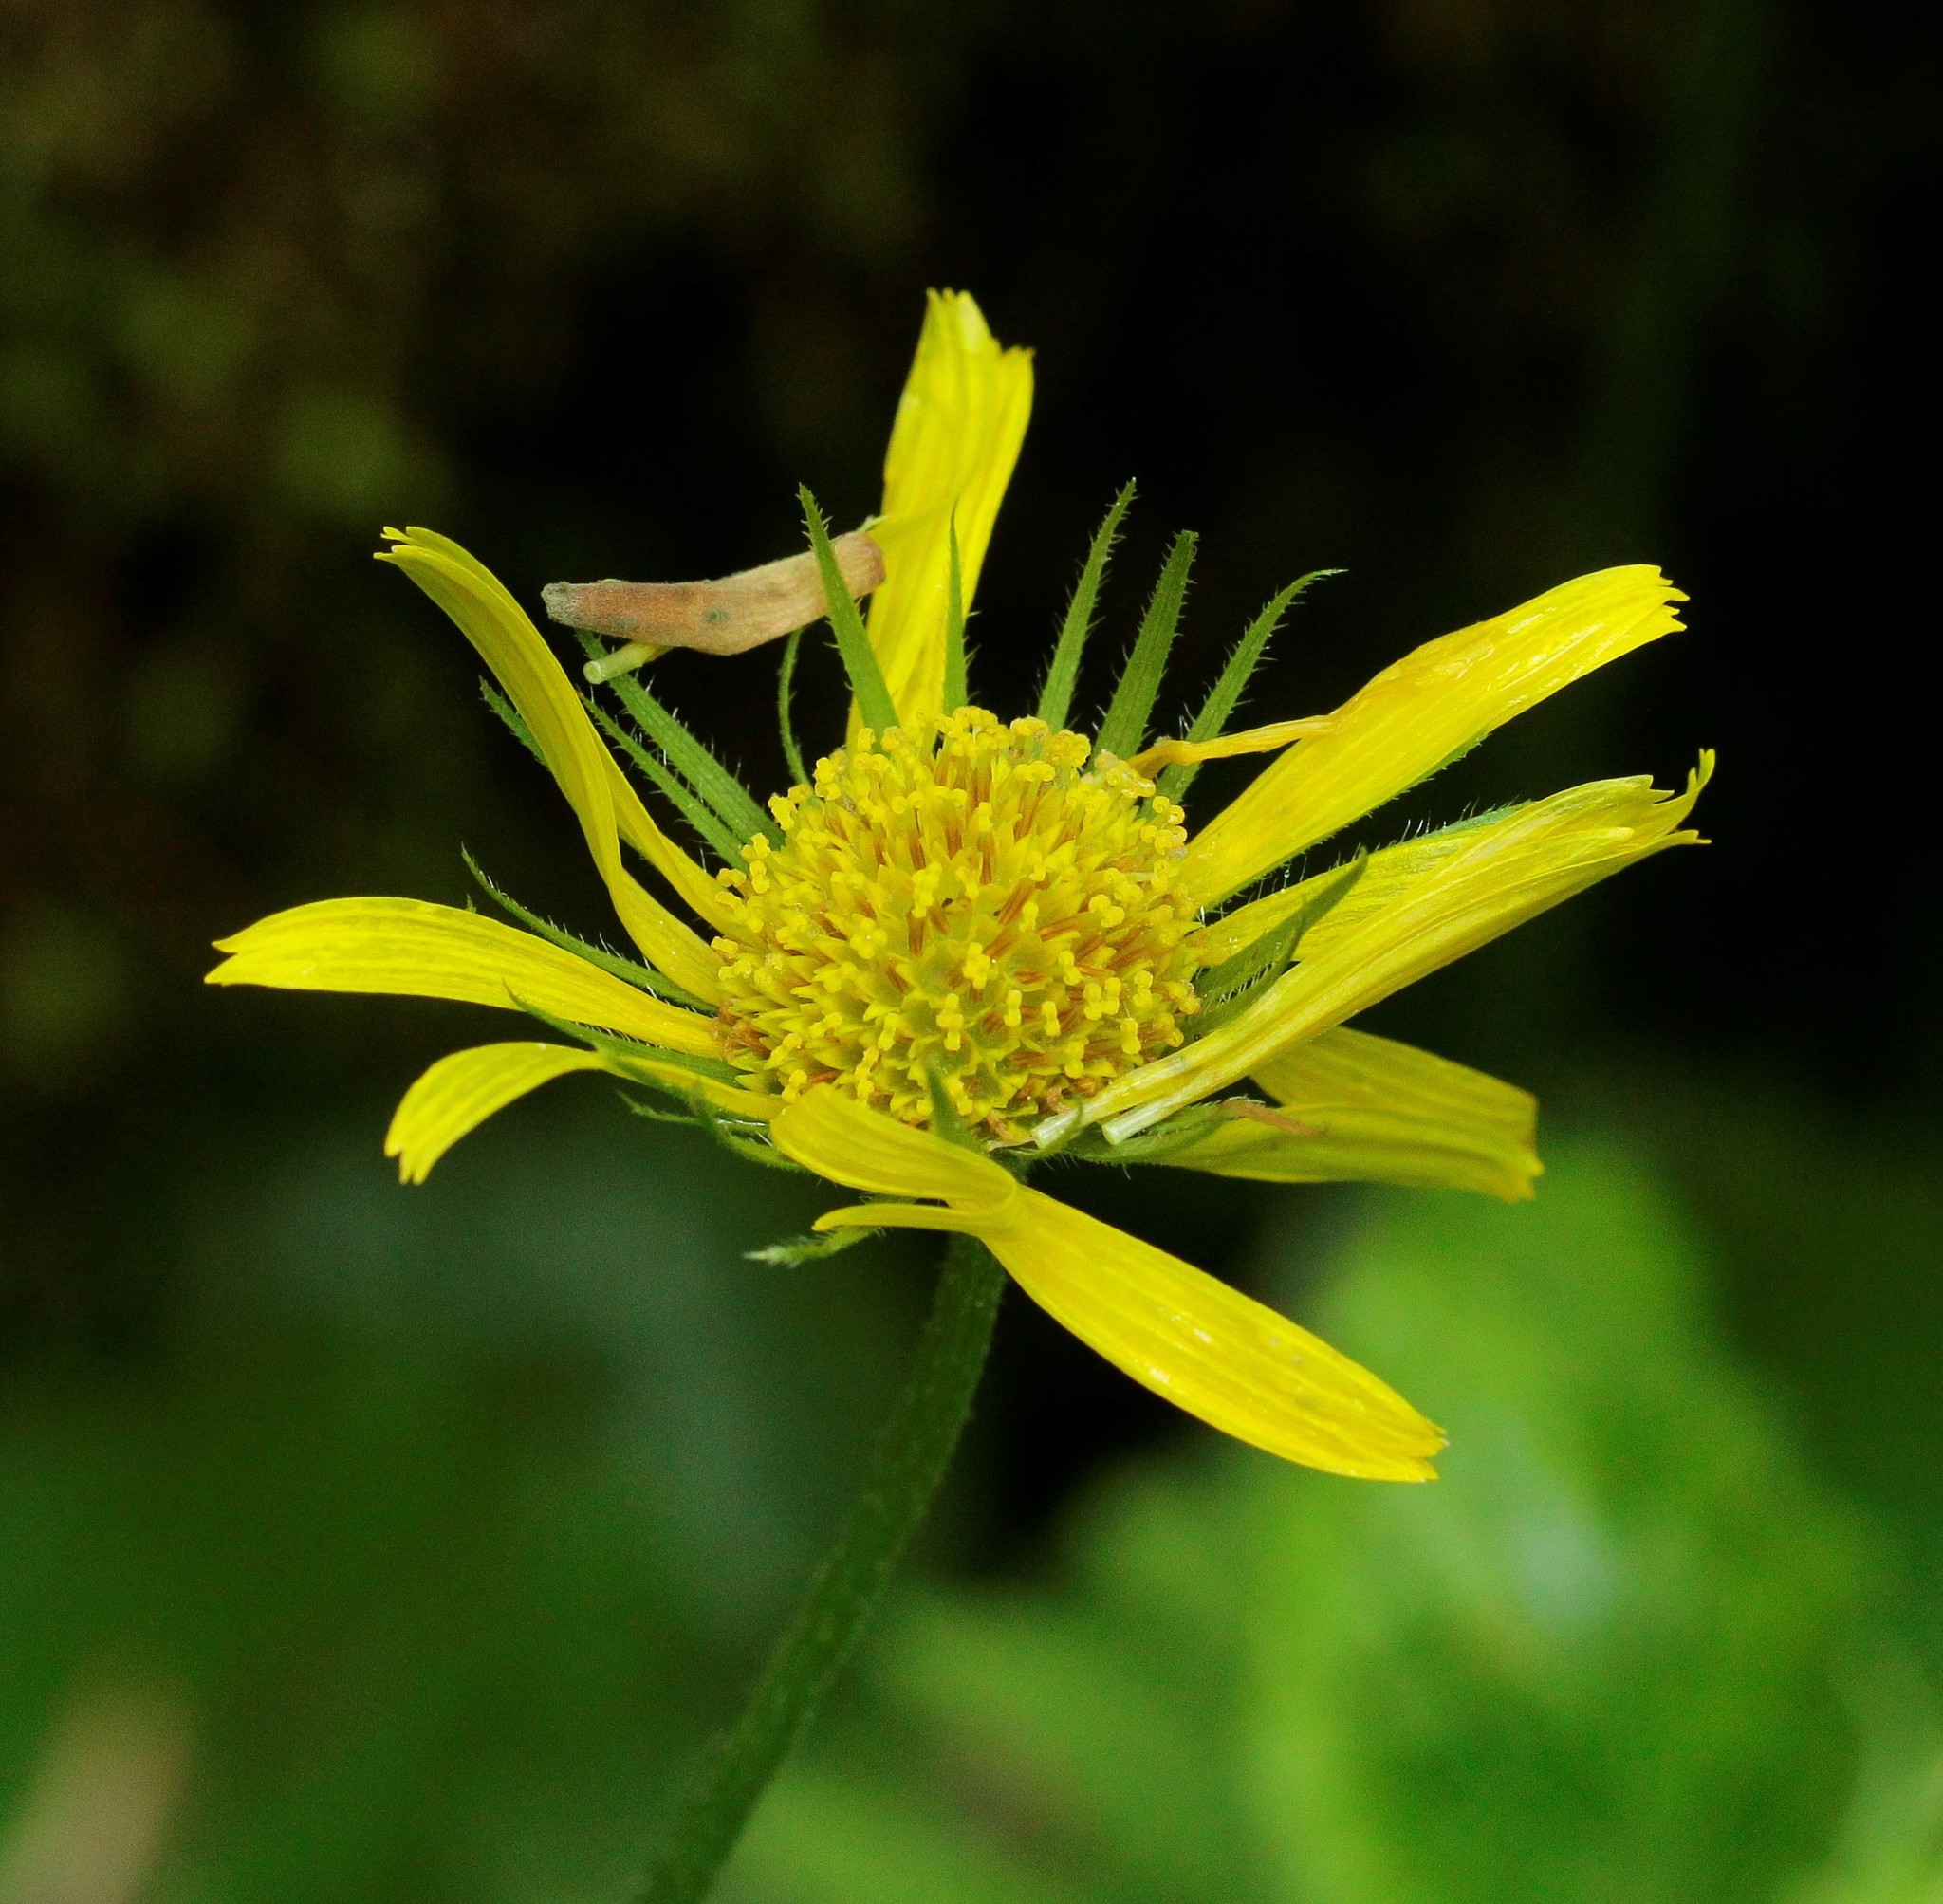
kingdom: Plantae
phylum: Tracheophyta
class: Magnoliopsida
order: Asterales
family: Asteraceae
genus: Doronicum
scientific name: Doronicum
